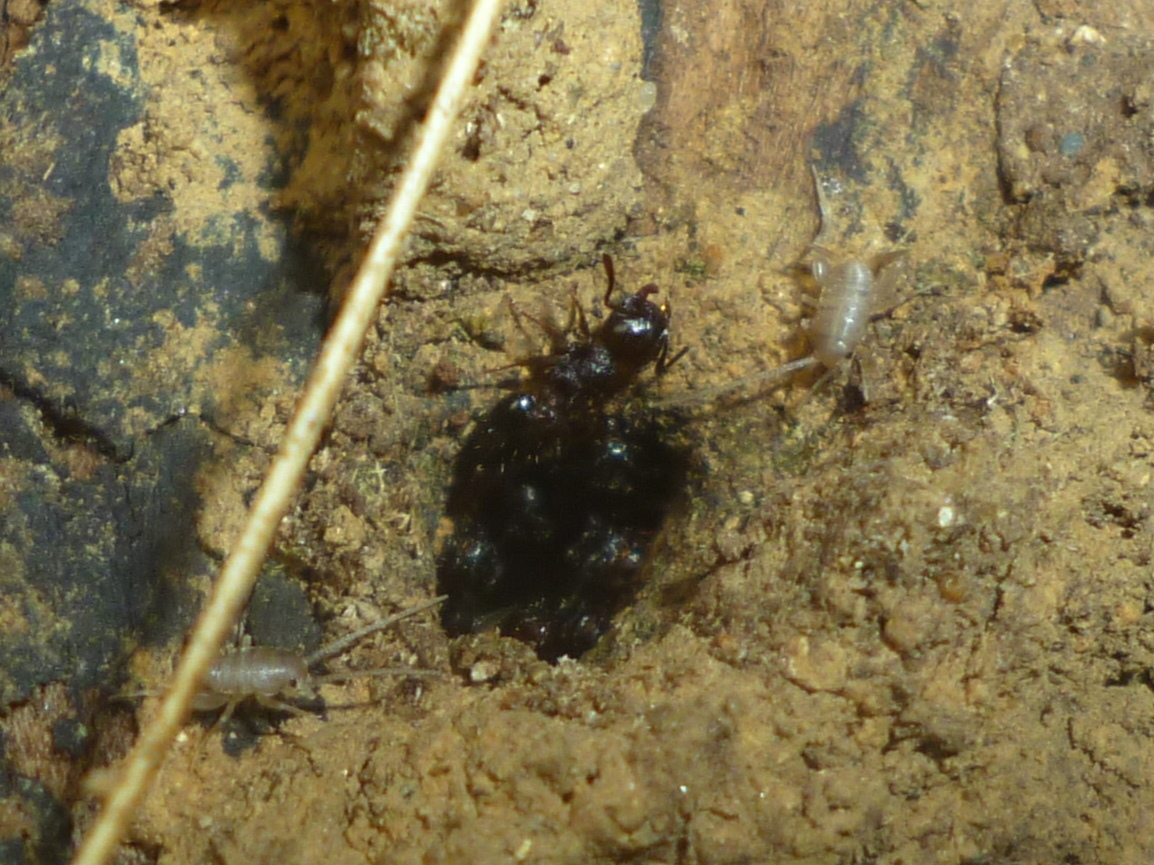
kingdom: Animalia
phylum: Arthropoda
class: Insecta
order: Orthoptera
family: Myrmecophilidae
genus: Myrmecophilus
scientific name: Myrmecophilus pergandei
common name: Eastern ant cricket
